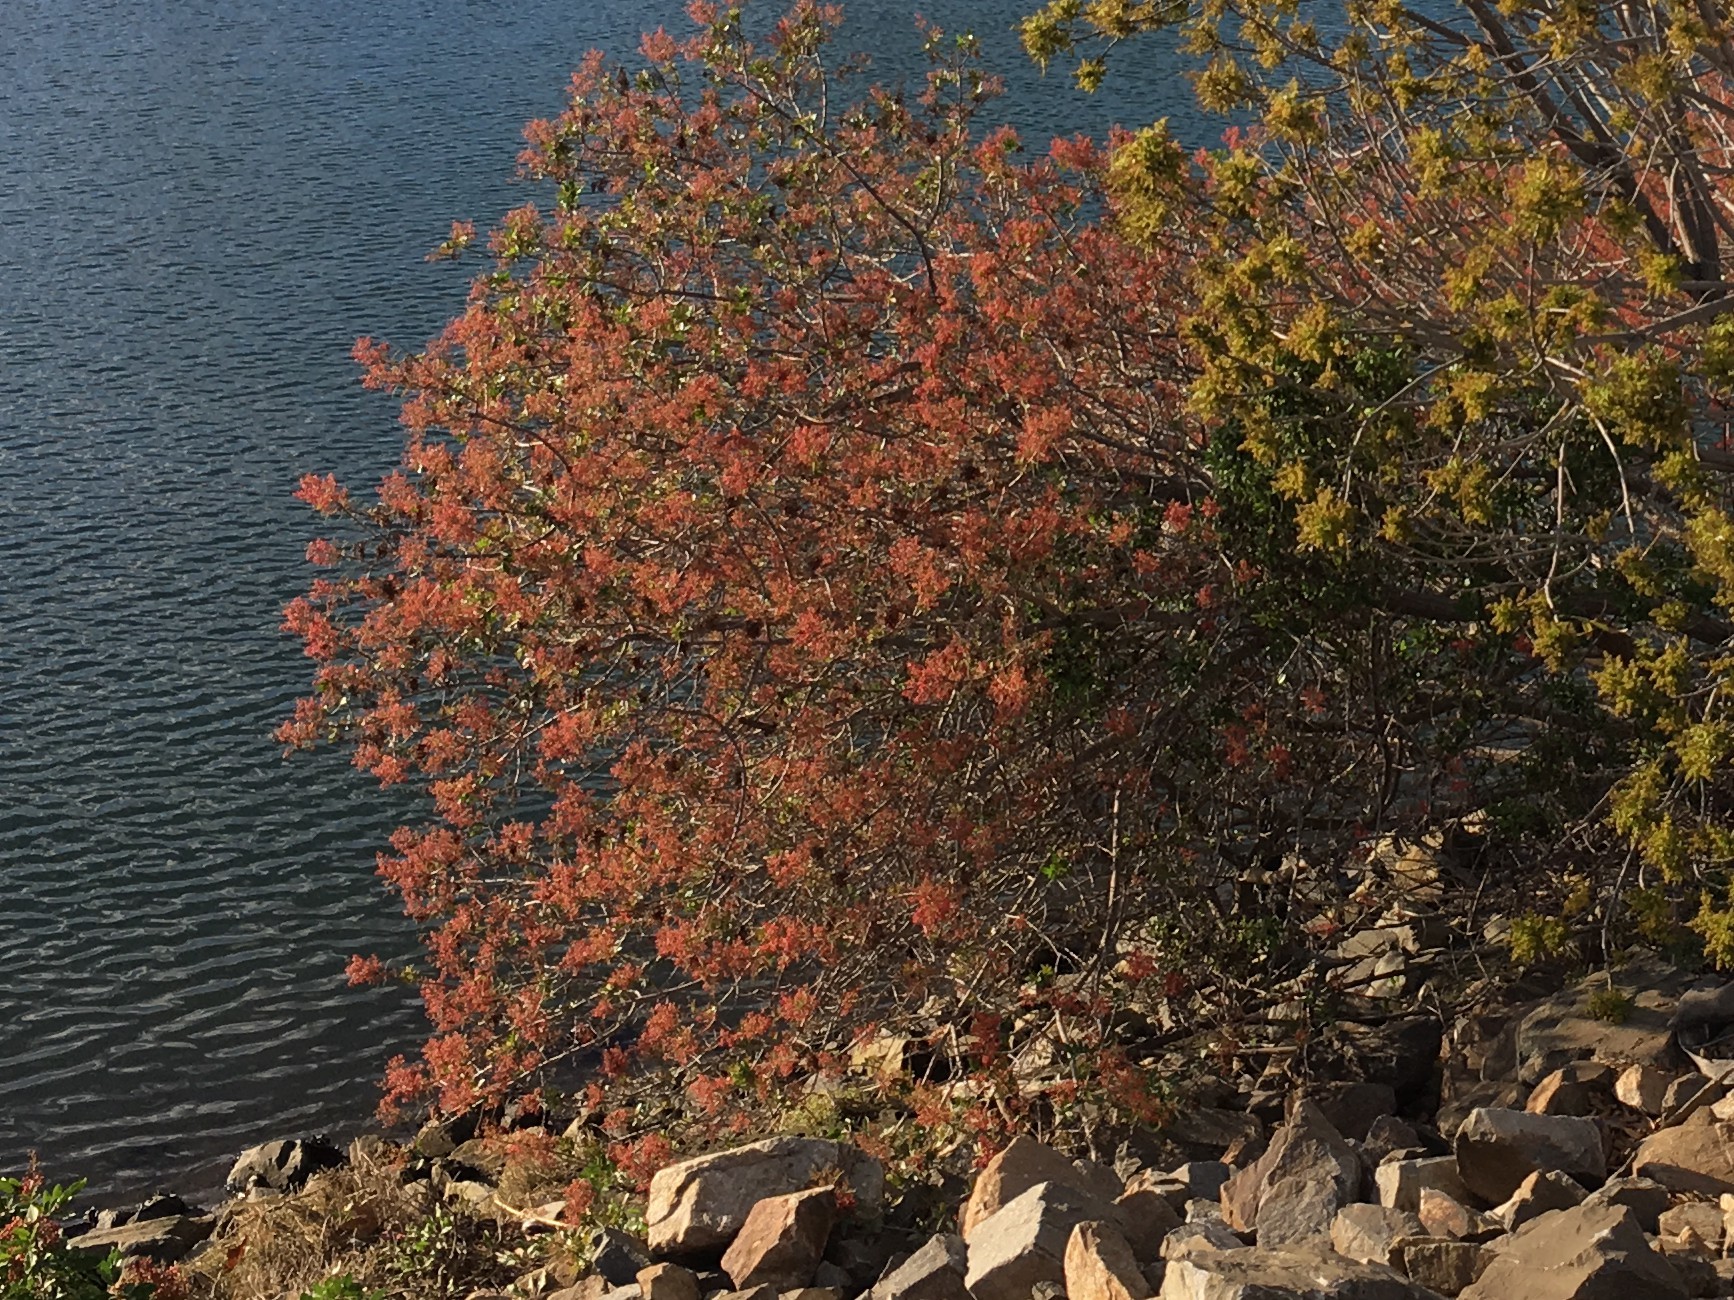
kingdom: Plantae
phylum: Tracheophyta
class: Magnoliopsida
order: Sapindales
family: Anacardiaceae
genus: Schinus
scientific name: Schinus terebinthifolia
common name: Brazilian peppertree
